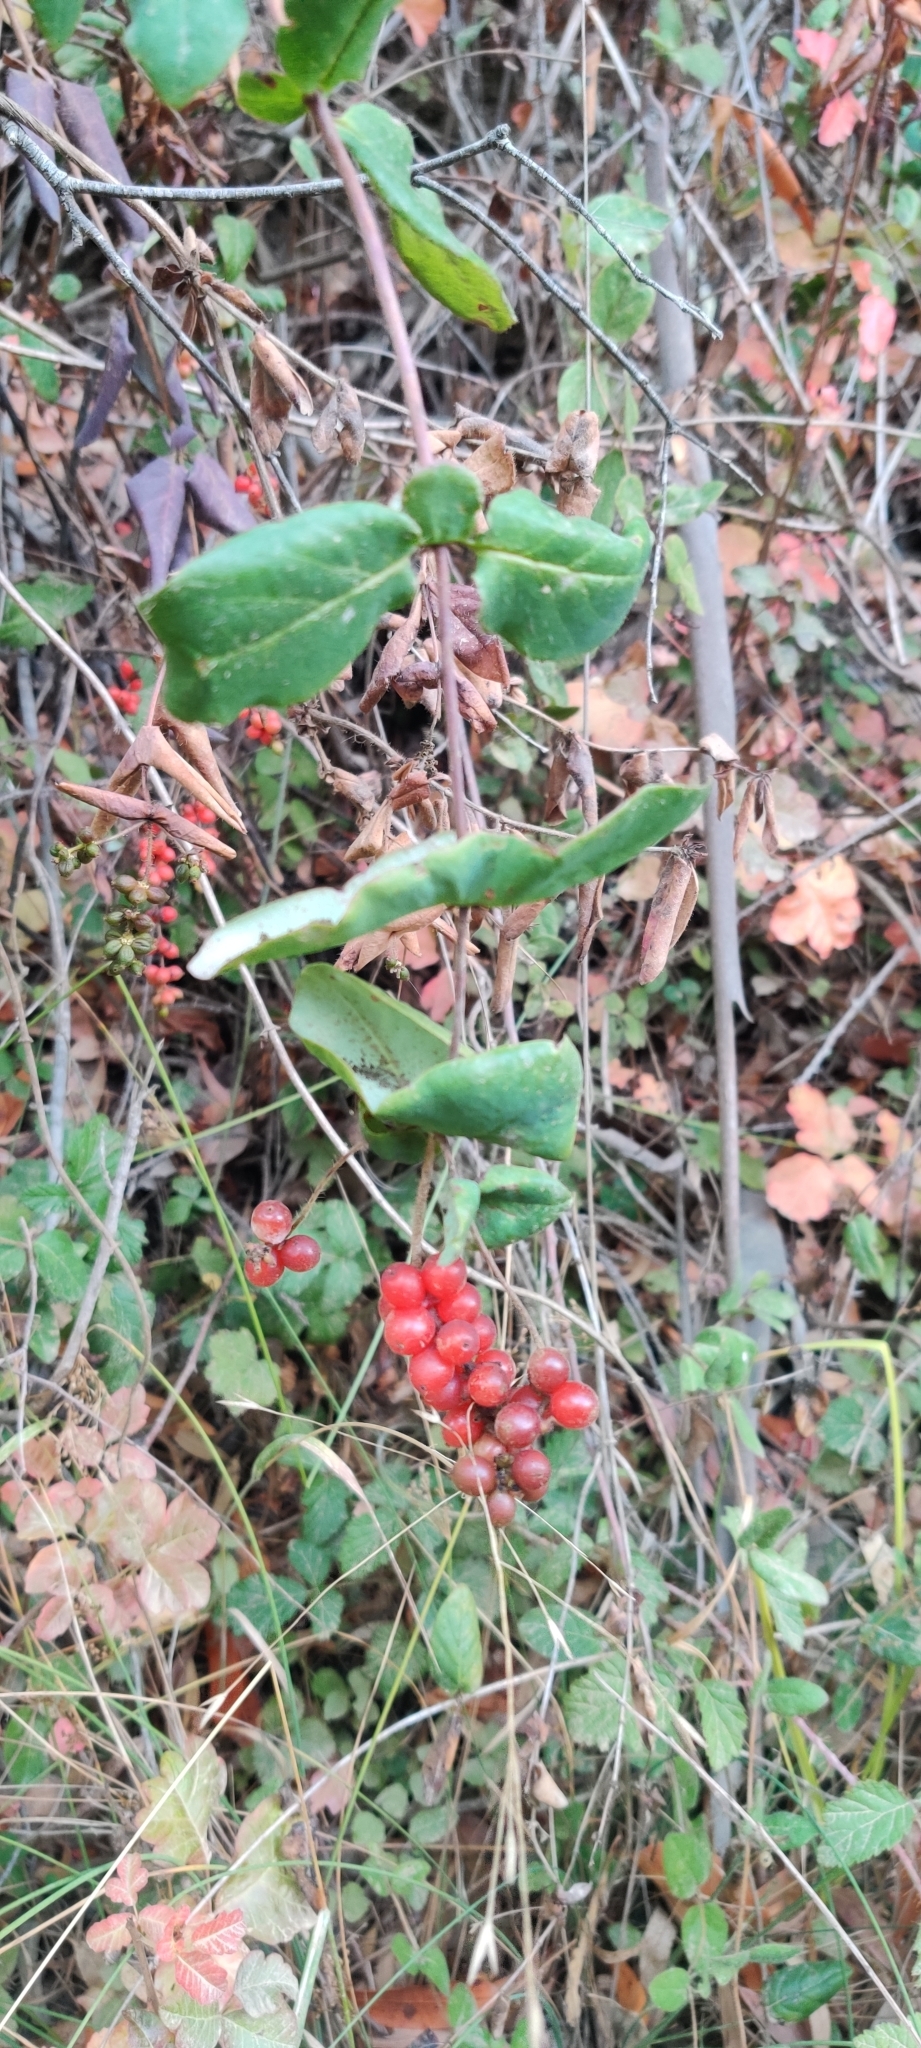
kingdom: Plantae
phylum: Tracheophyta
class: Magnoliopsida
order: Dipsacales
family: Caprifoliaceae
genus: Lonicera
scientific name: Lonicera hispidula
